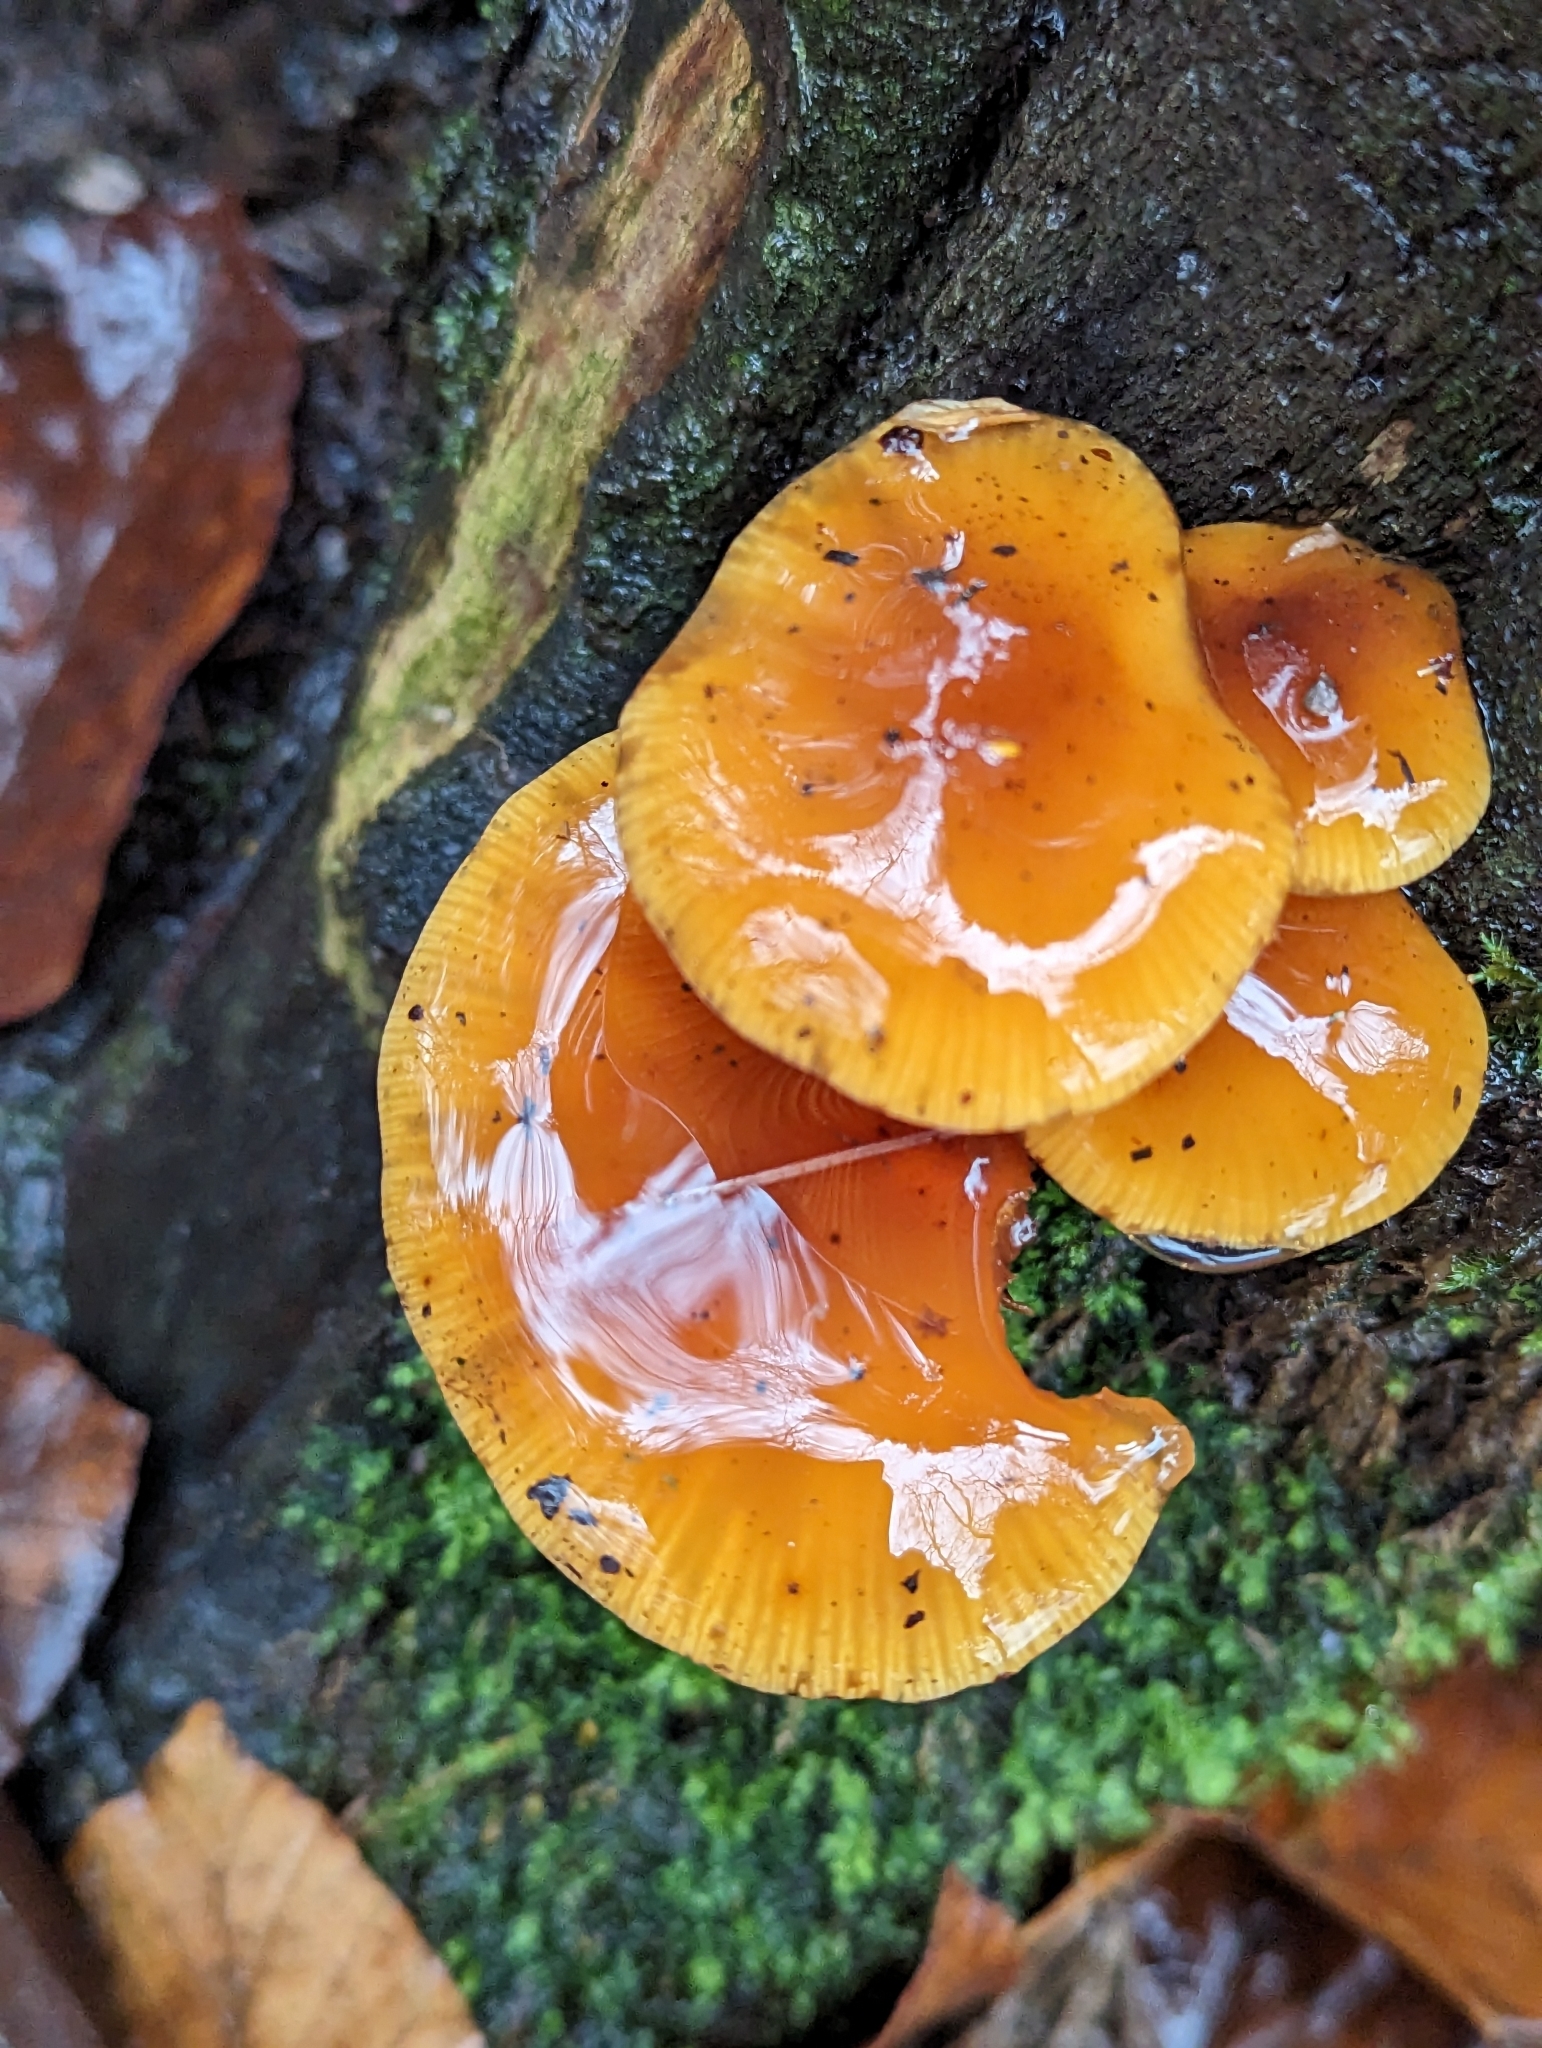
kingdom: Fungi
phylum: Basidiomycota
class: Agaricomycetes
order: Agaricales
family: Physalacriaceae
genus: Flammulina
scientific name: Flammulina
